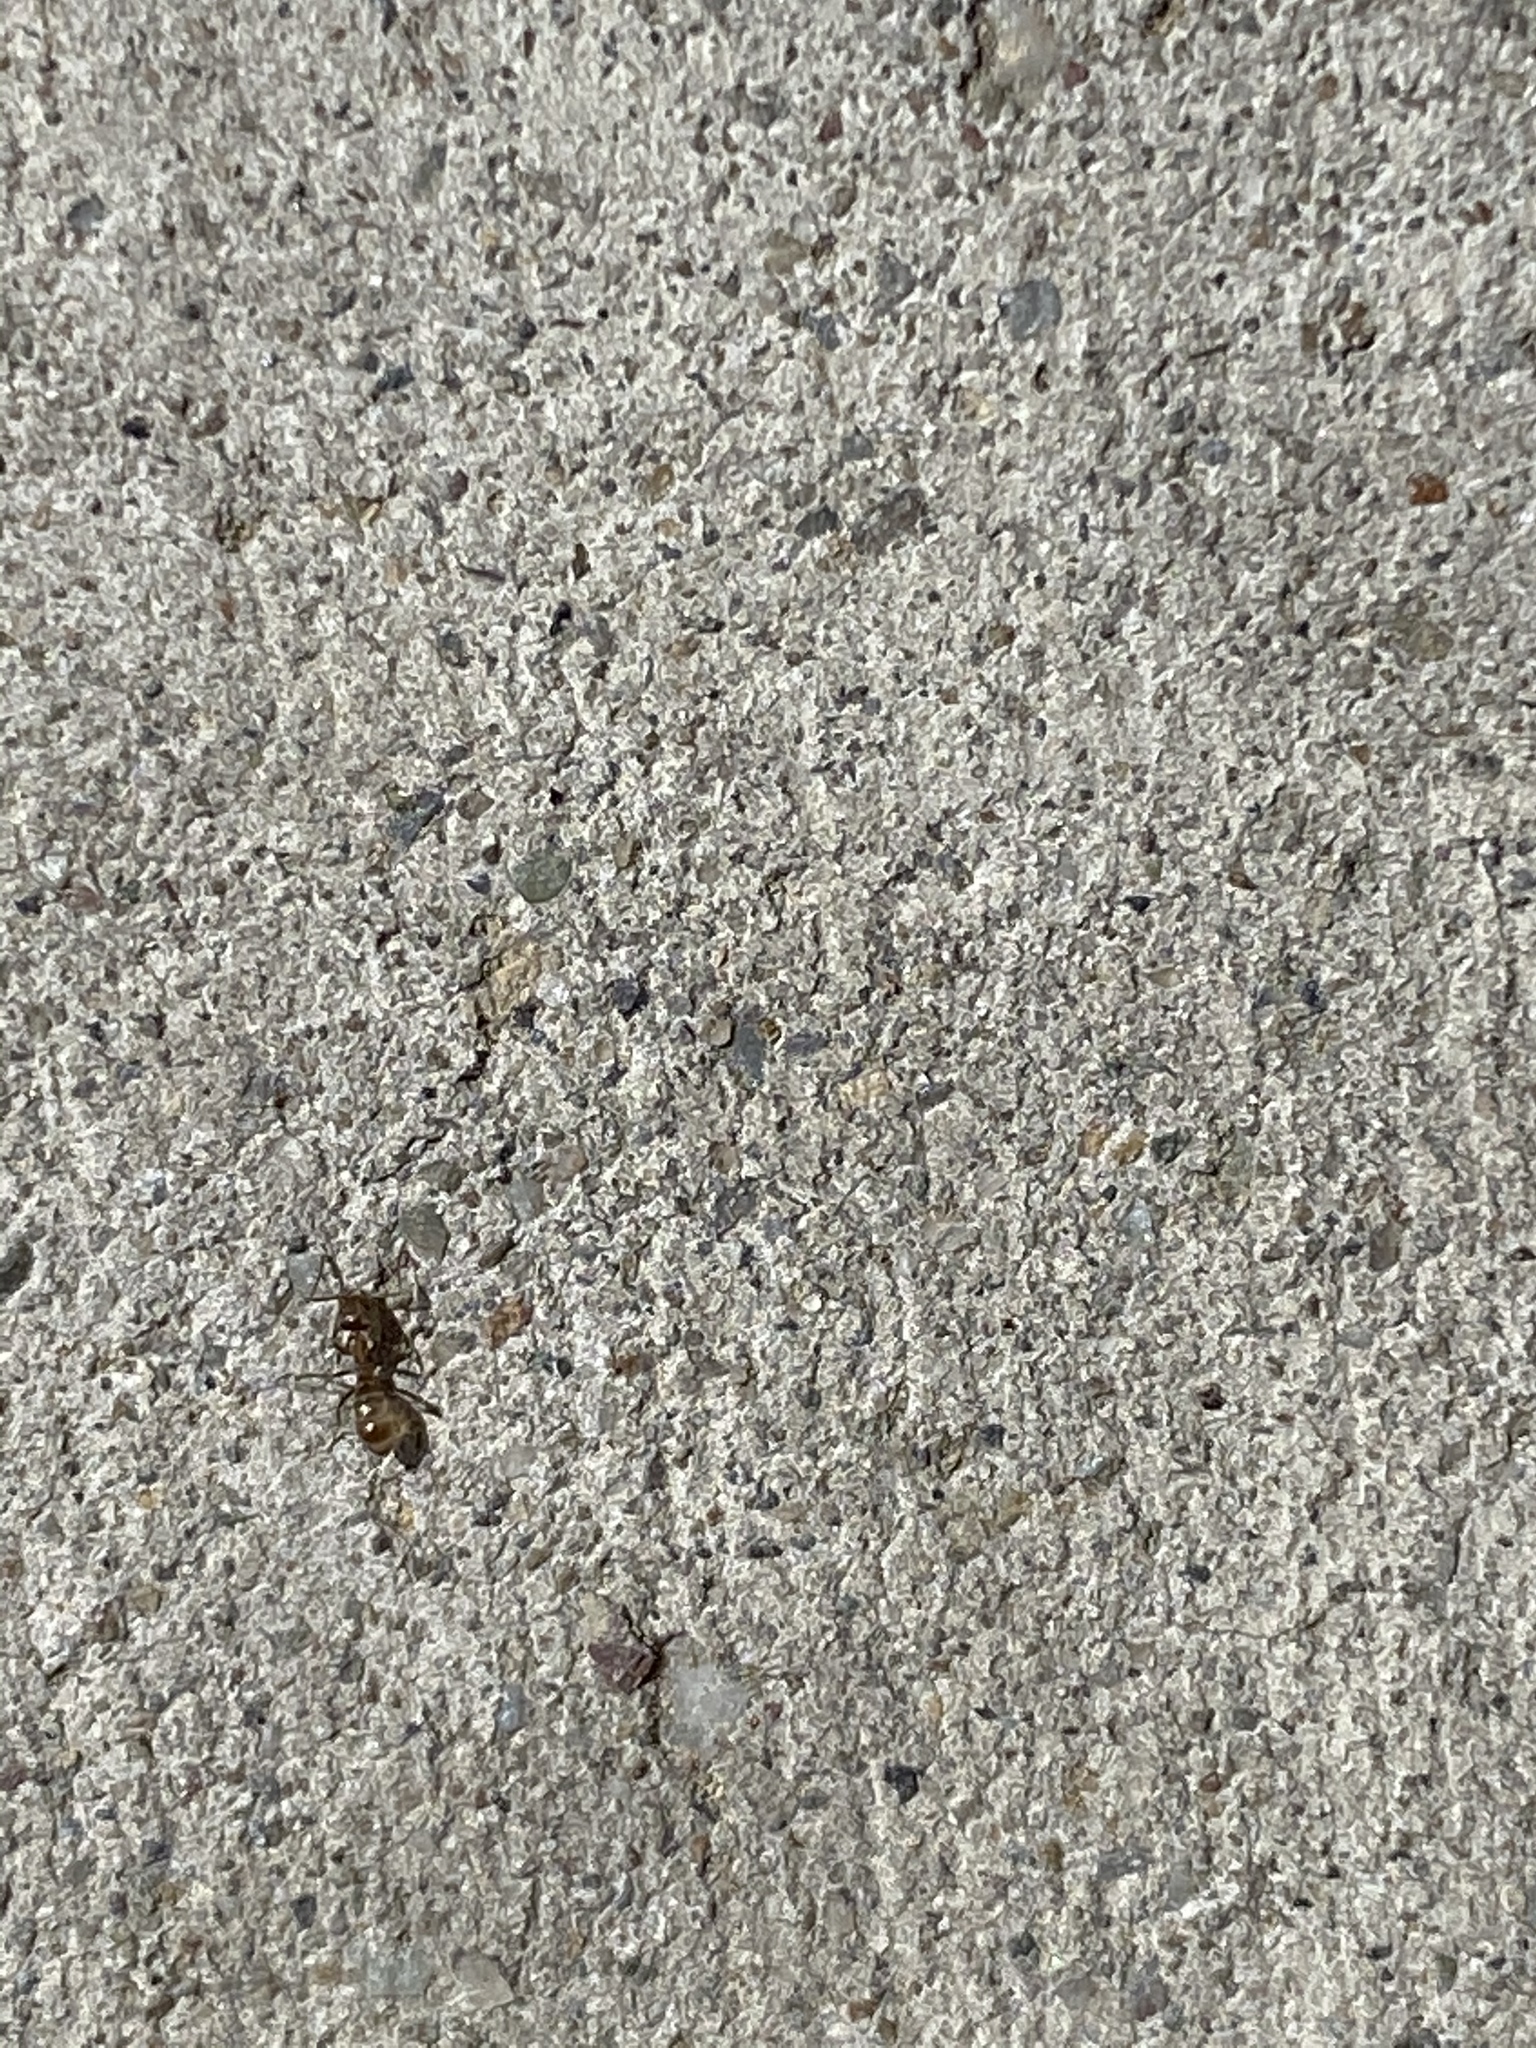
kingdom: Animalia
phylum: Arthropoda
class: Insecta
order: Hymenoptera
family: Formicidae
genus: Linepithema
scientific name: Linepithema humile
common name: Argentine ant
